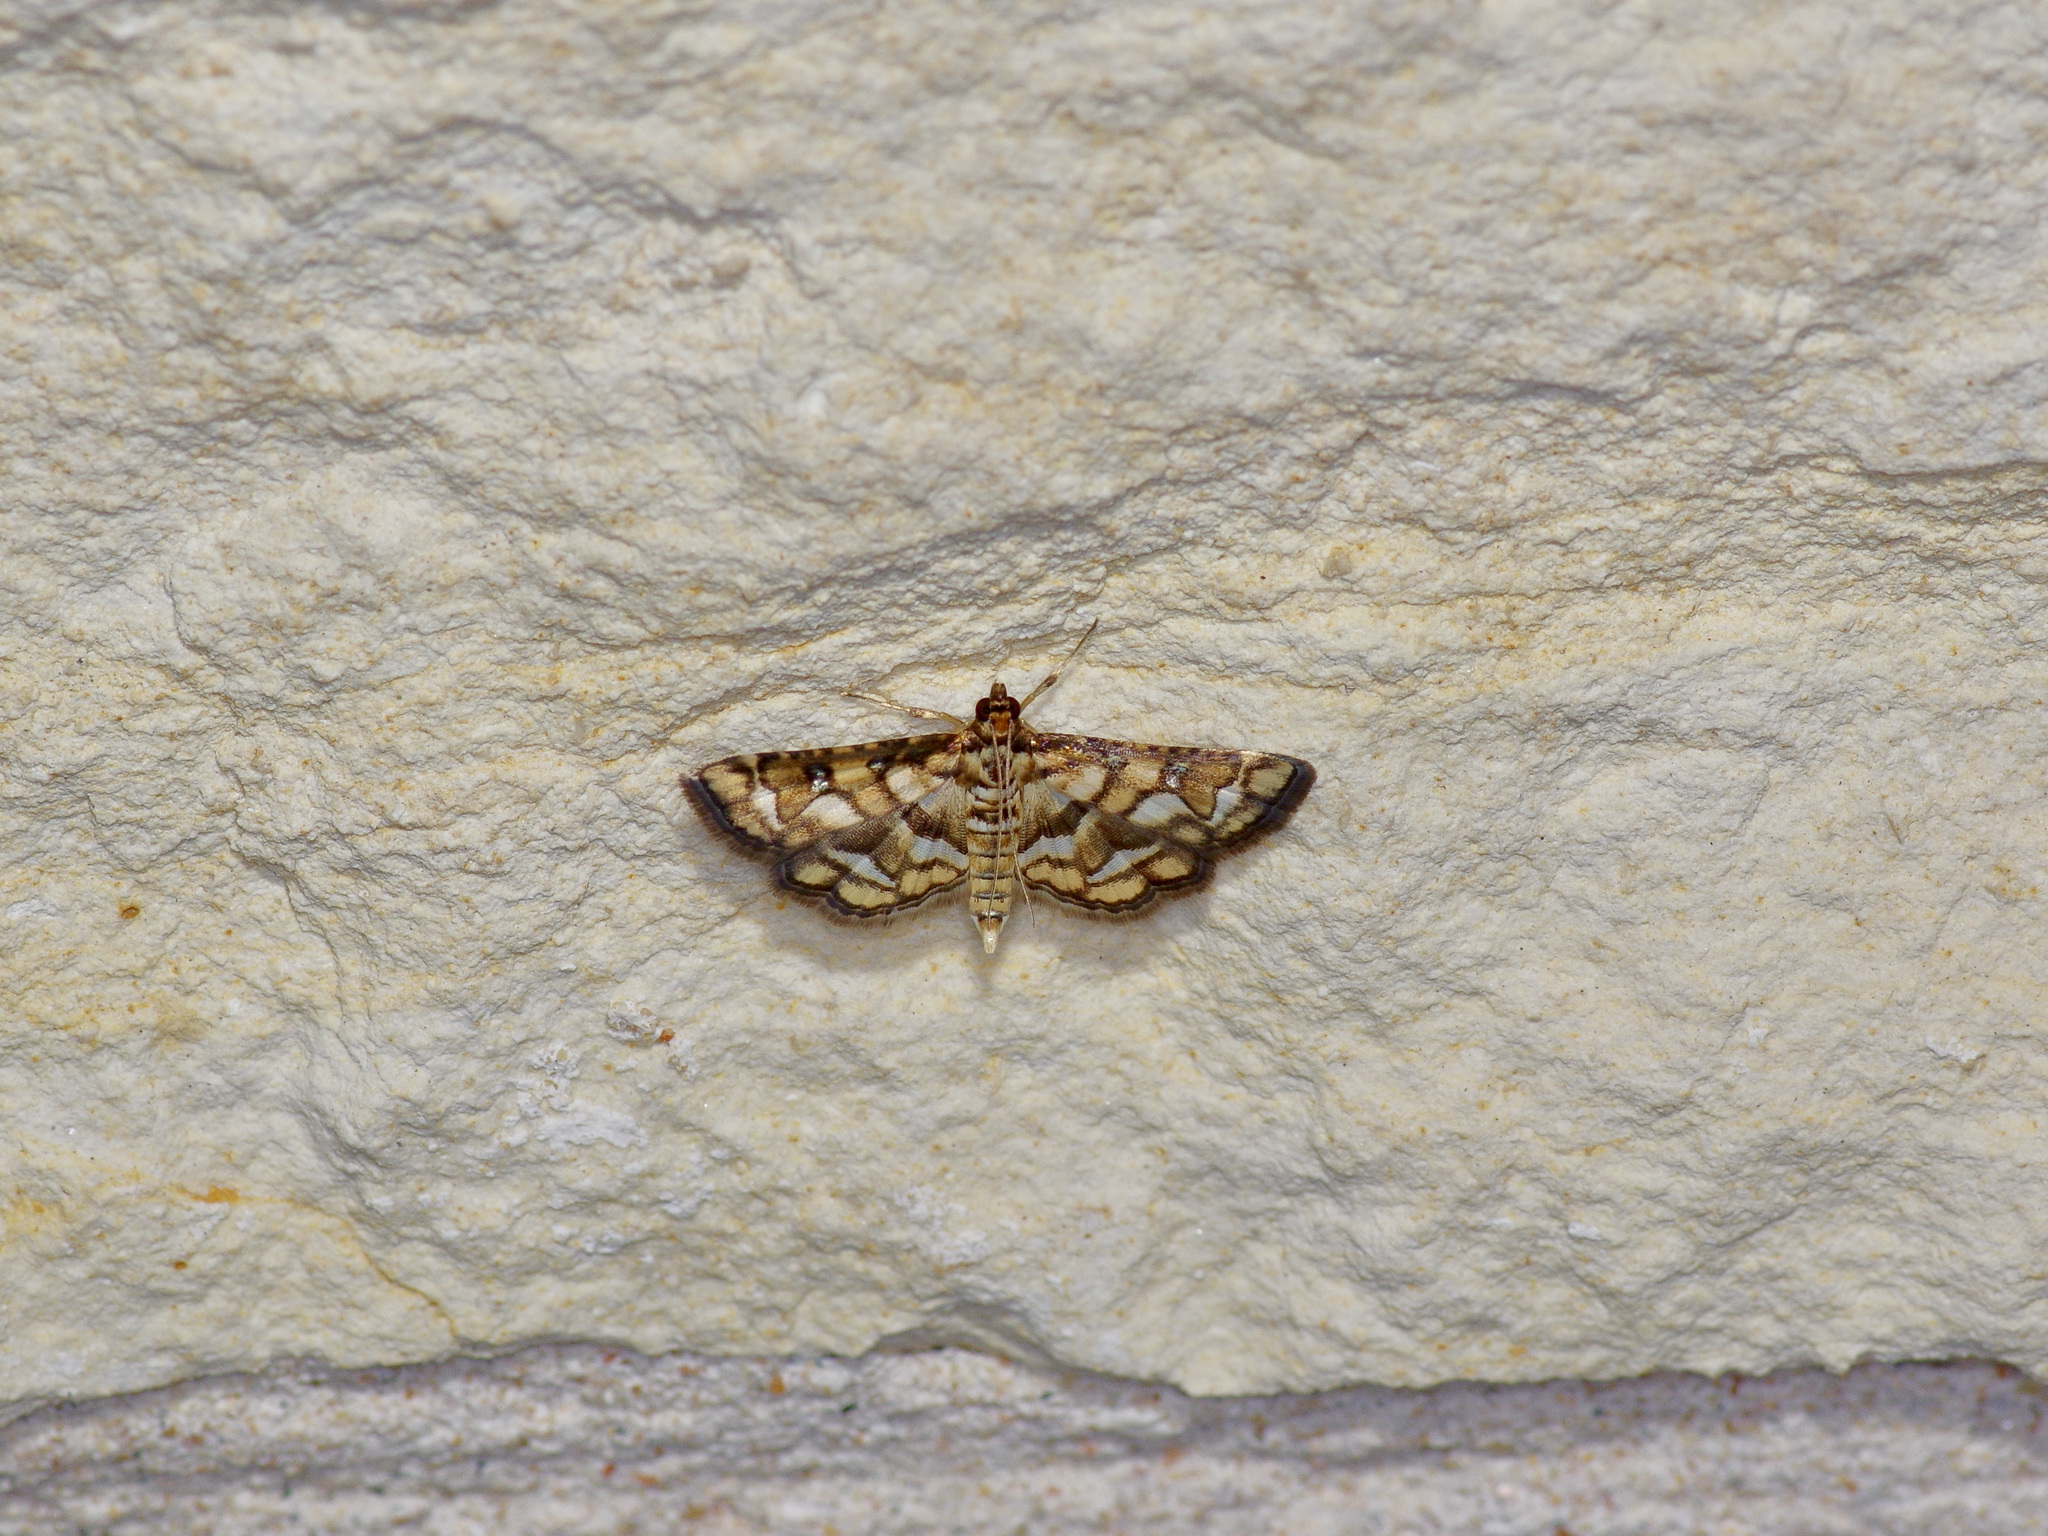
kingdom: Animalia
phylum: Arthropoda
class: Insecta
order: Lepidoptera
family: Crambidae
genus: Hileithia
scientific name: Hileithia magualis
